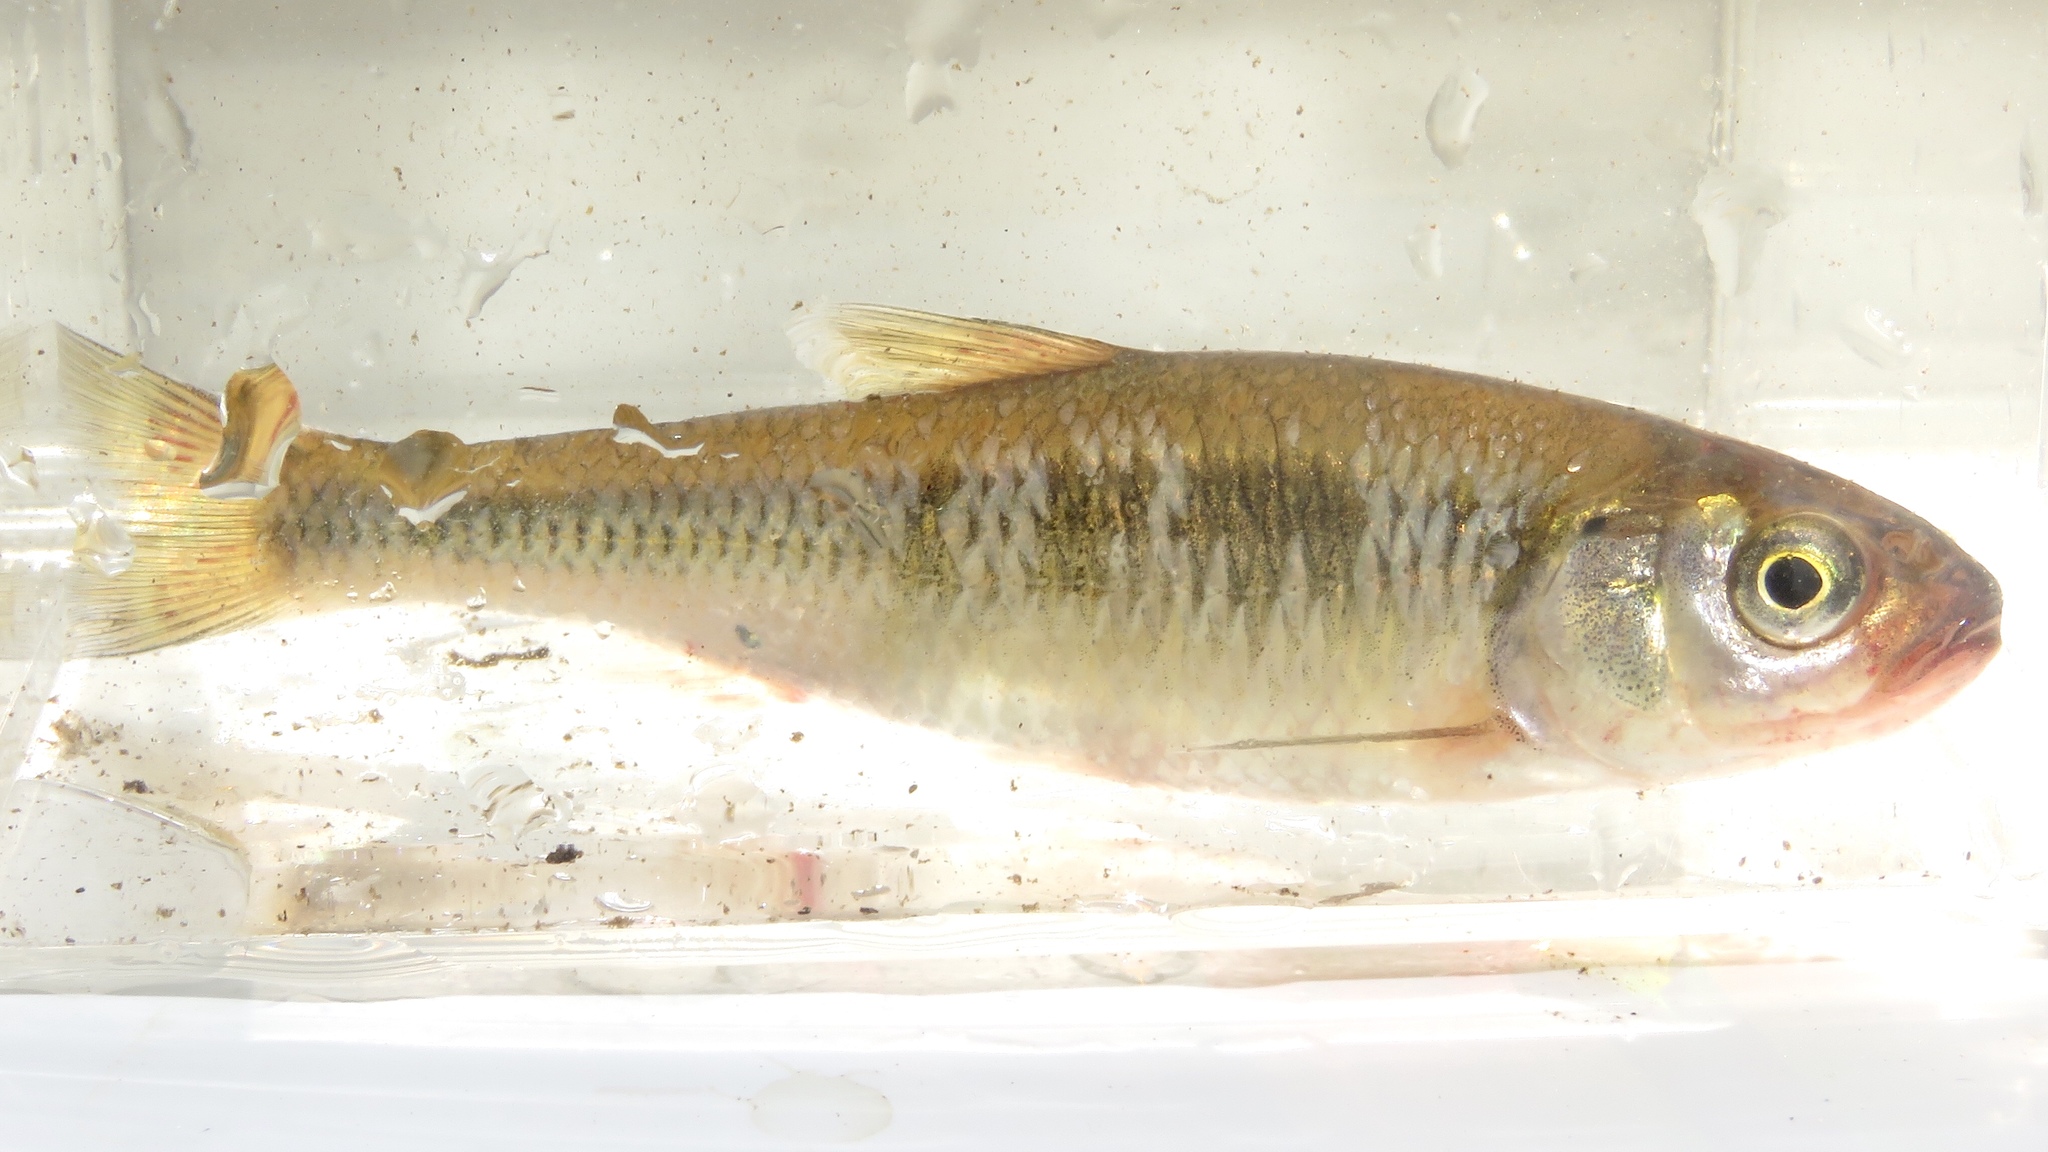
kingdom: Animalia
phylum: Chordata
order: Cypriniformes
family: Cyprinidae
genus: Luxilus
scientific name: Luxilus cornutus
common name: Common shiner
